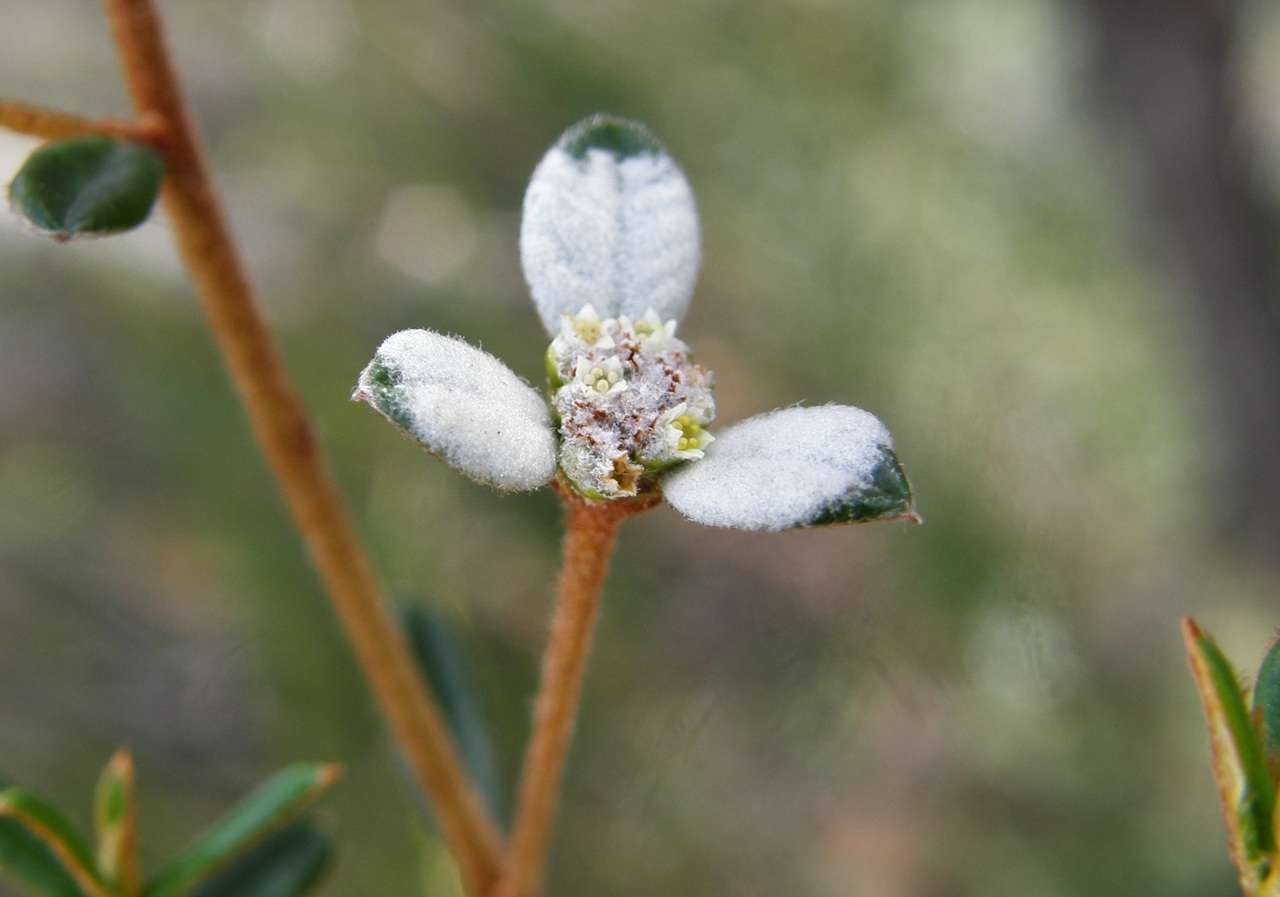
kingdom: Plantae
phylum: Tracheophyta
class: Magnoliopsida
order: Rosales
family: Rhamnaceae
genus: Spyridium
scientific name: Spyridium vexilliferum
